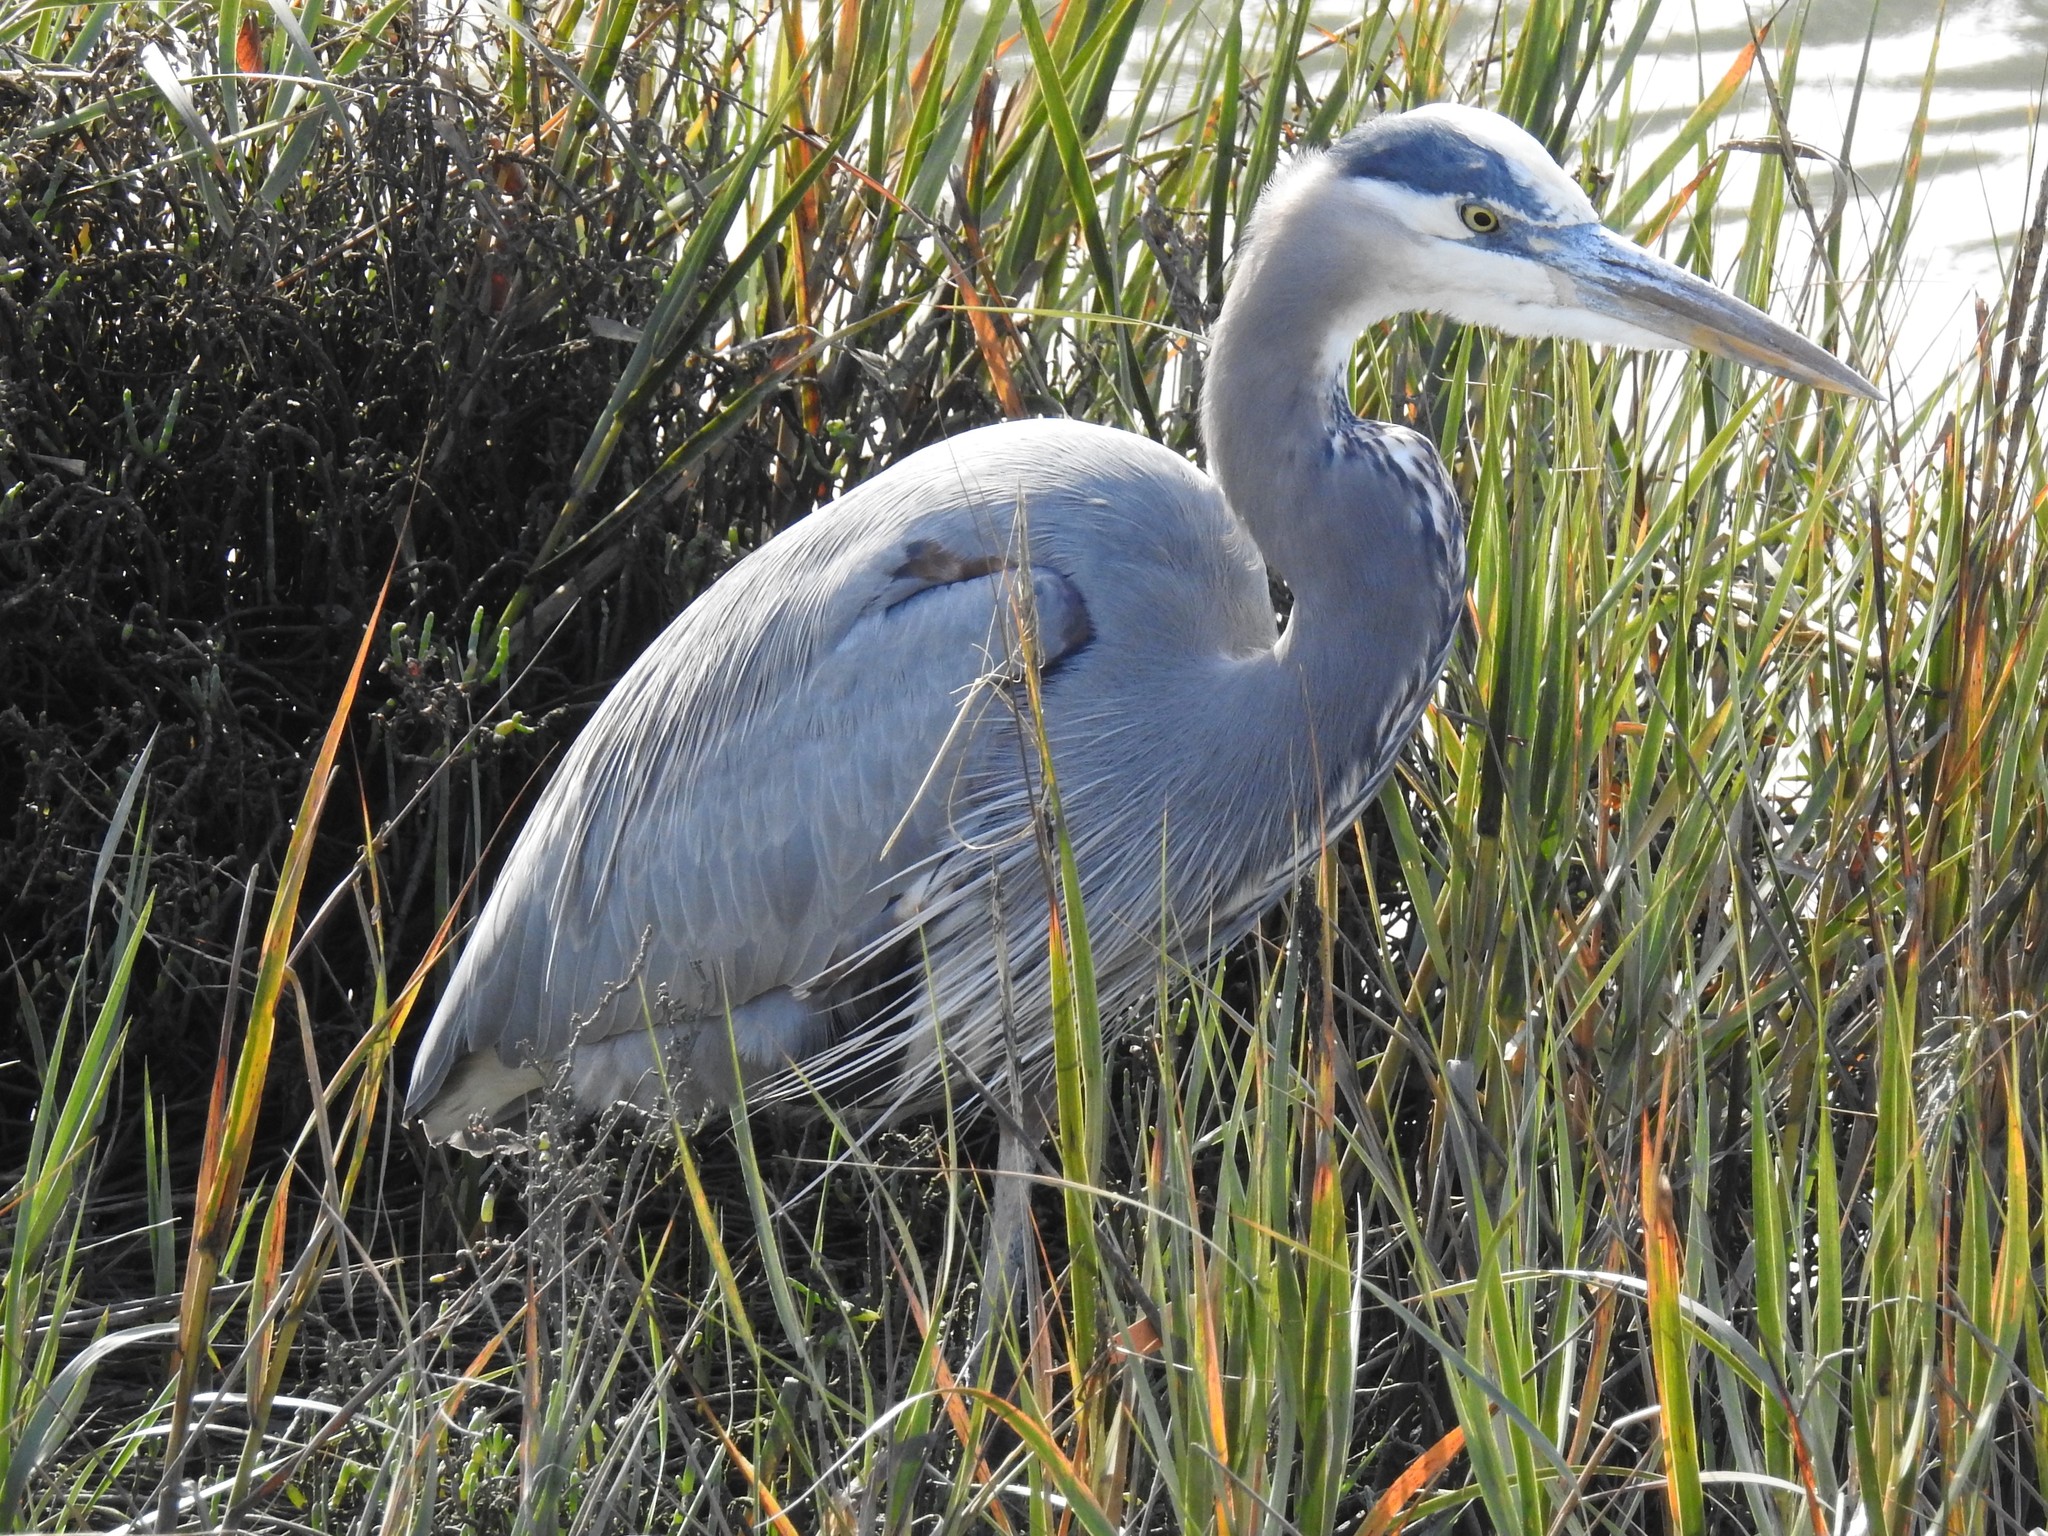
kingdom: Animalia
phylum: Chordata
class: Aves
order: Pelecaniformes
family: Ardeidae
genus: Ardea
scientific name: Ardea herodias
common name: Great blue heron
